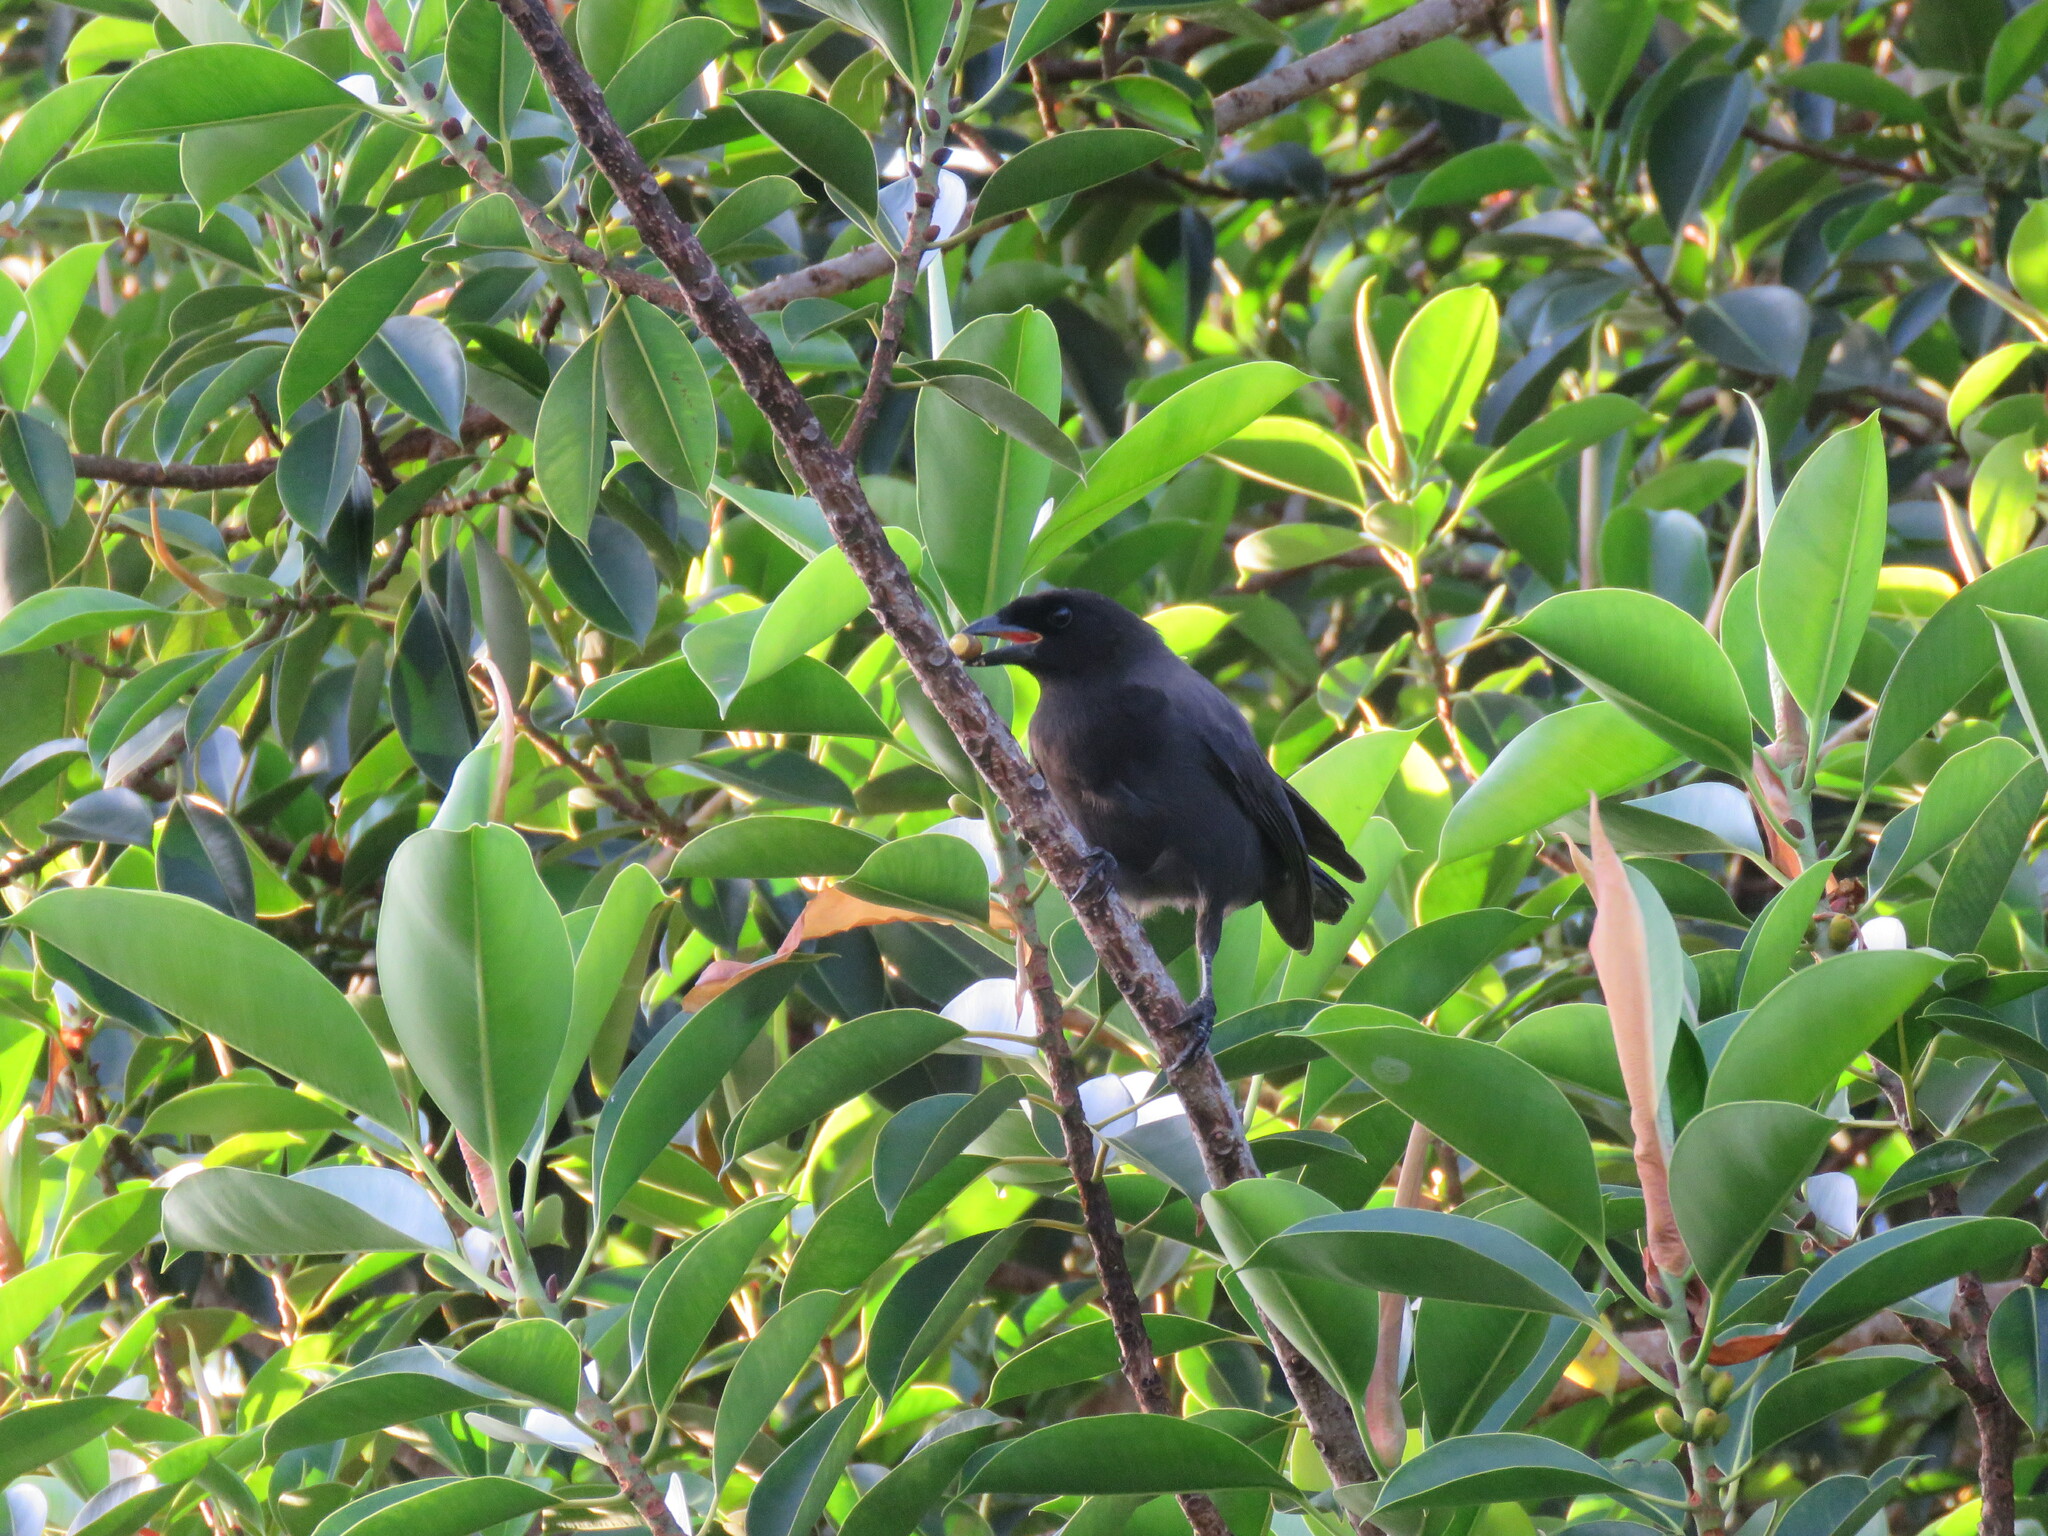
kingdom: Animalia
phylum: Chordata
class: Aves
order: Passeriformes
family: Corvidae
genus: Cyanocorax
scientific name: Cyanocorax cyanomelas
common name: Purplish jay
